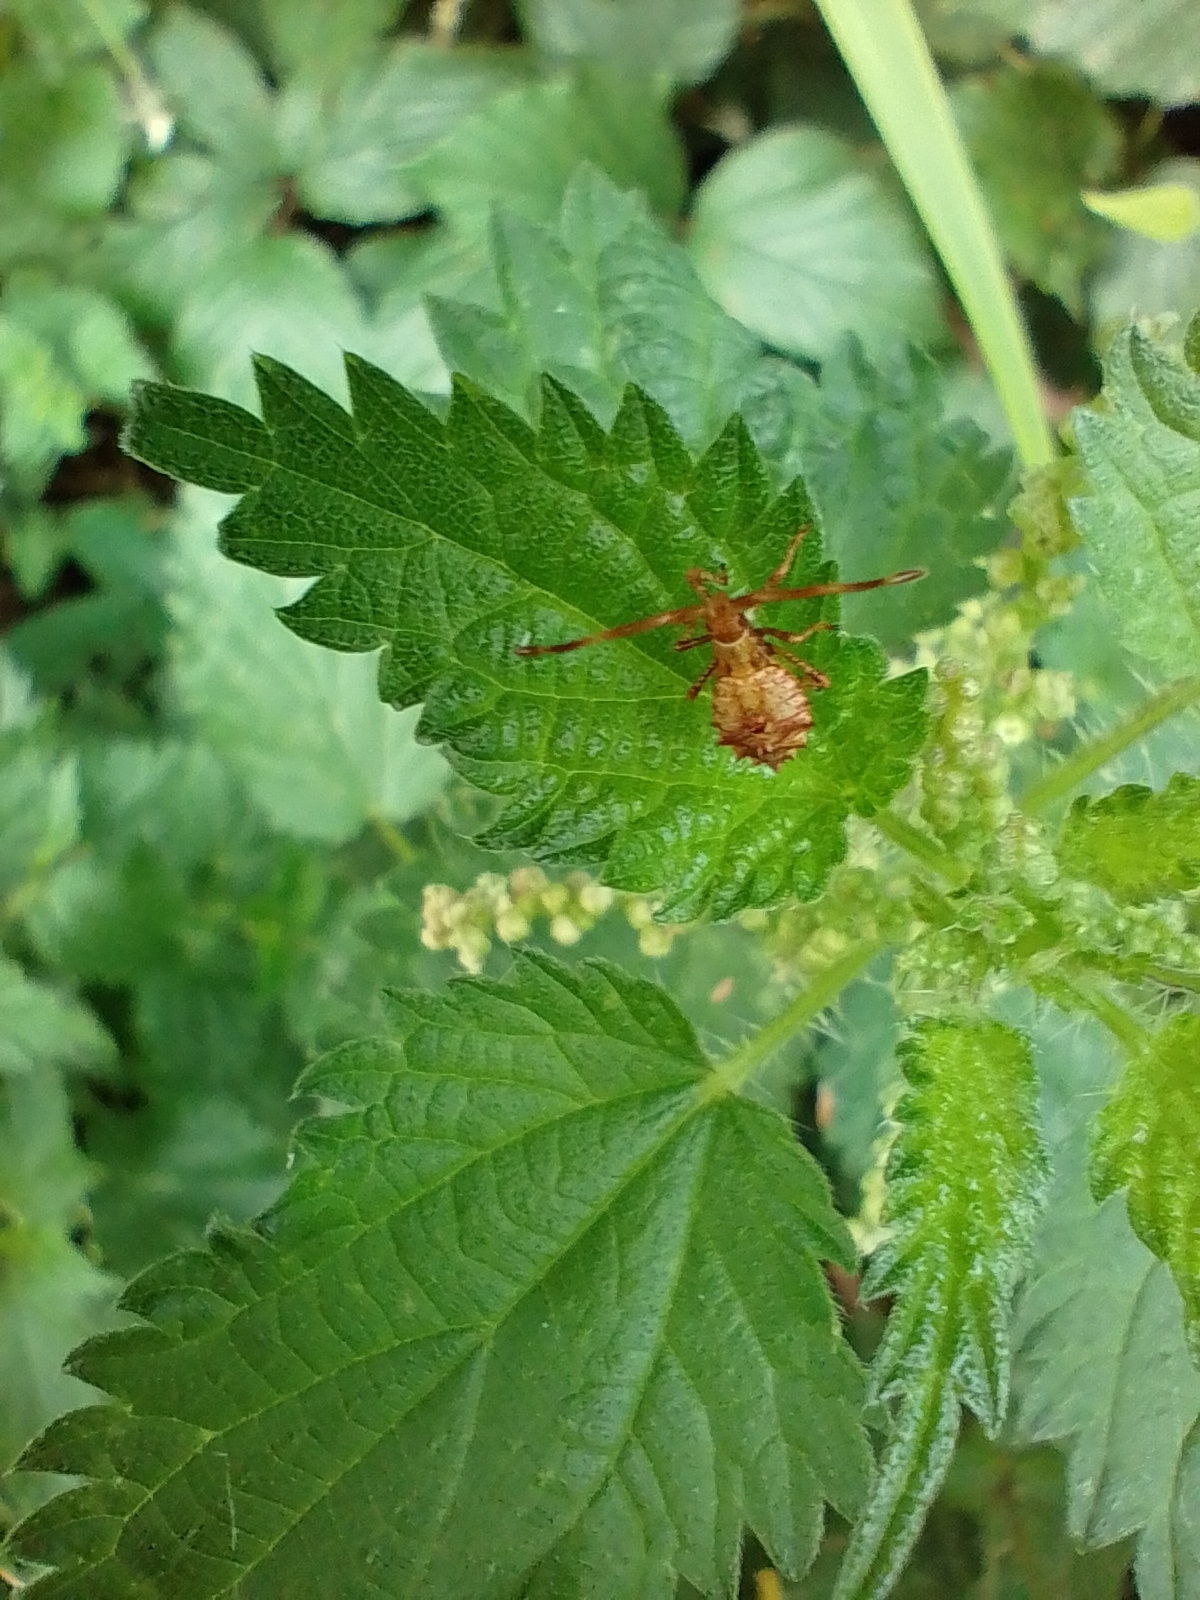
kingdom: Animalia
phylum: Arthropoda
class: Insecta
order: Hemiptera
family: Coreidae
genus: Coreus
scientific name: Coreus marginatus
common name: Dock bug
